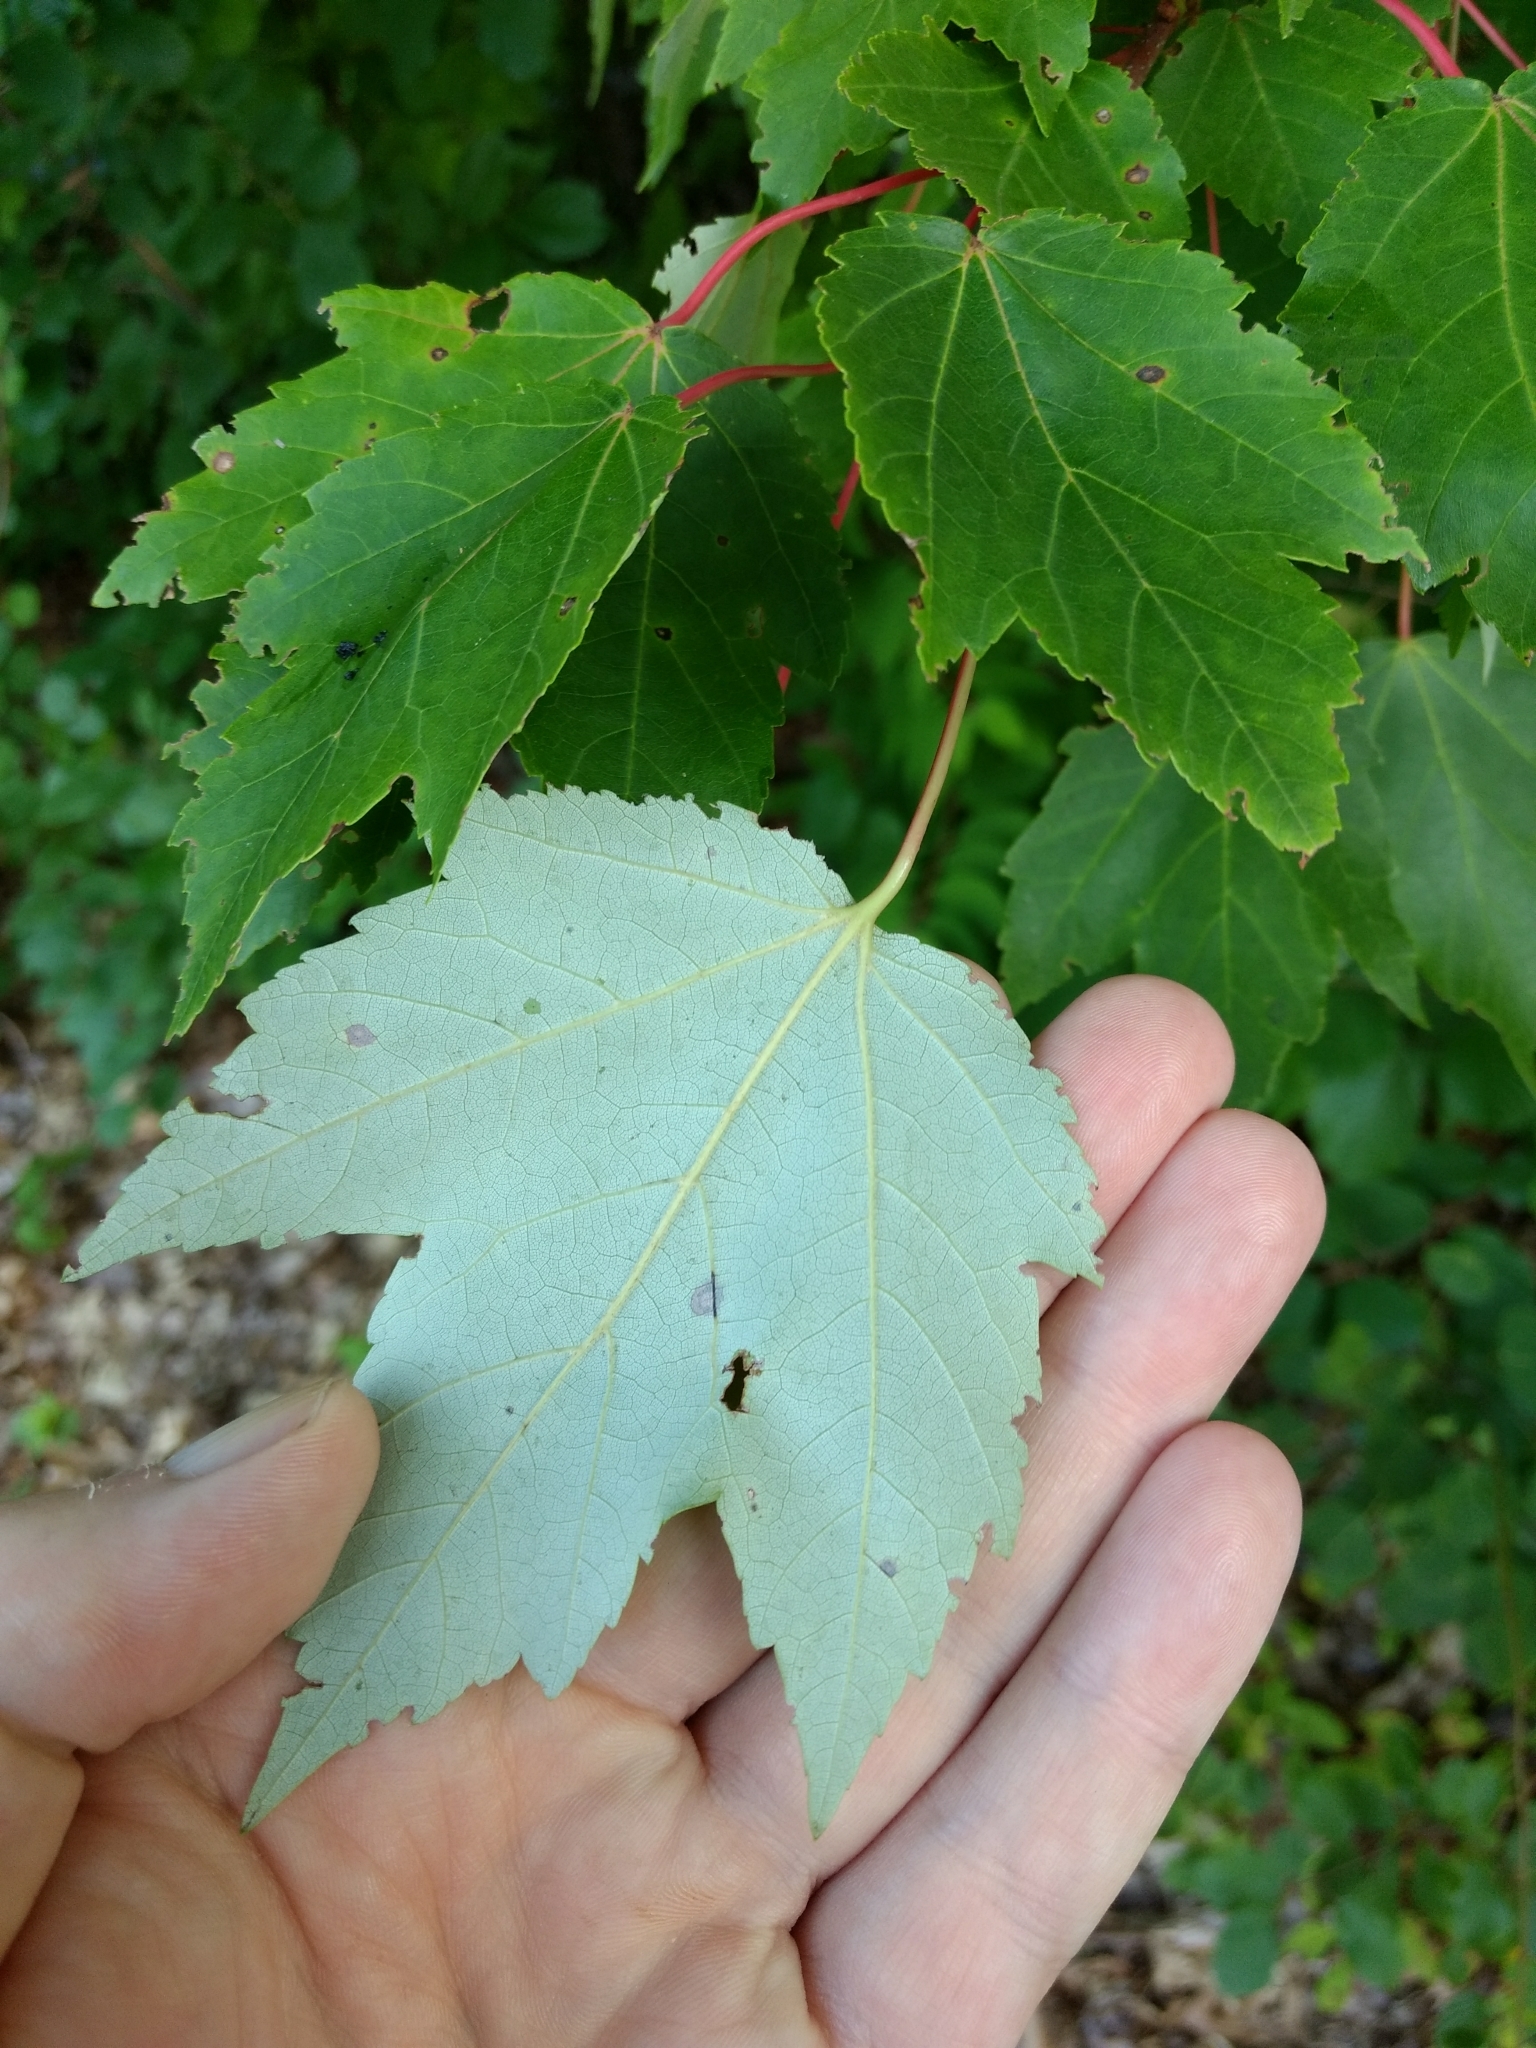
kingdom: Plantae
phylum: Tracheophyta
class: Magnoliopsida
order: Sapindales
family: Sapindaceae
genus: Acer
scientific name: Acer rubrum
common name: Red maple
